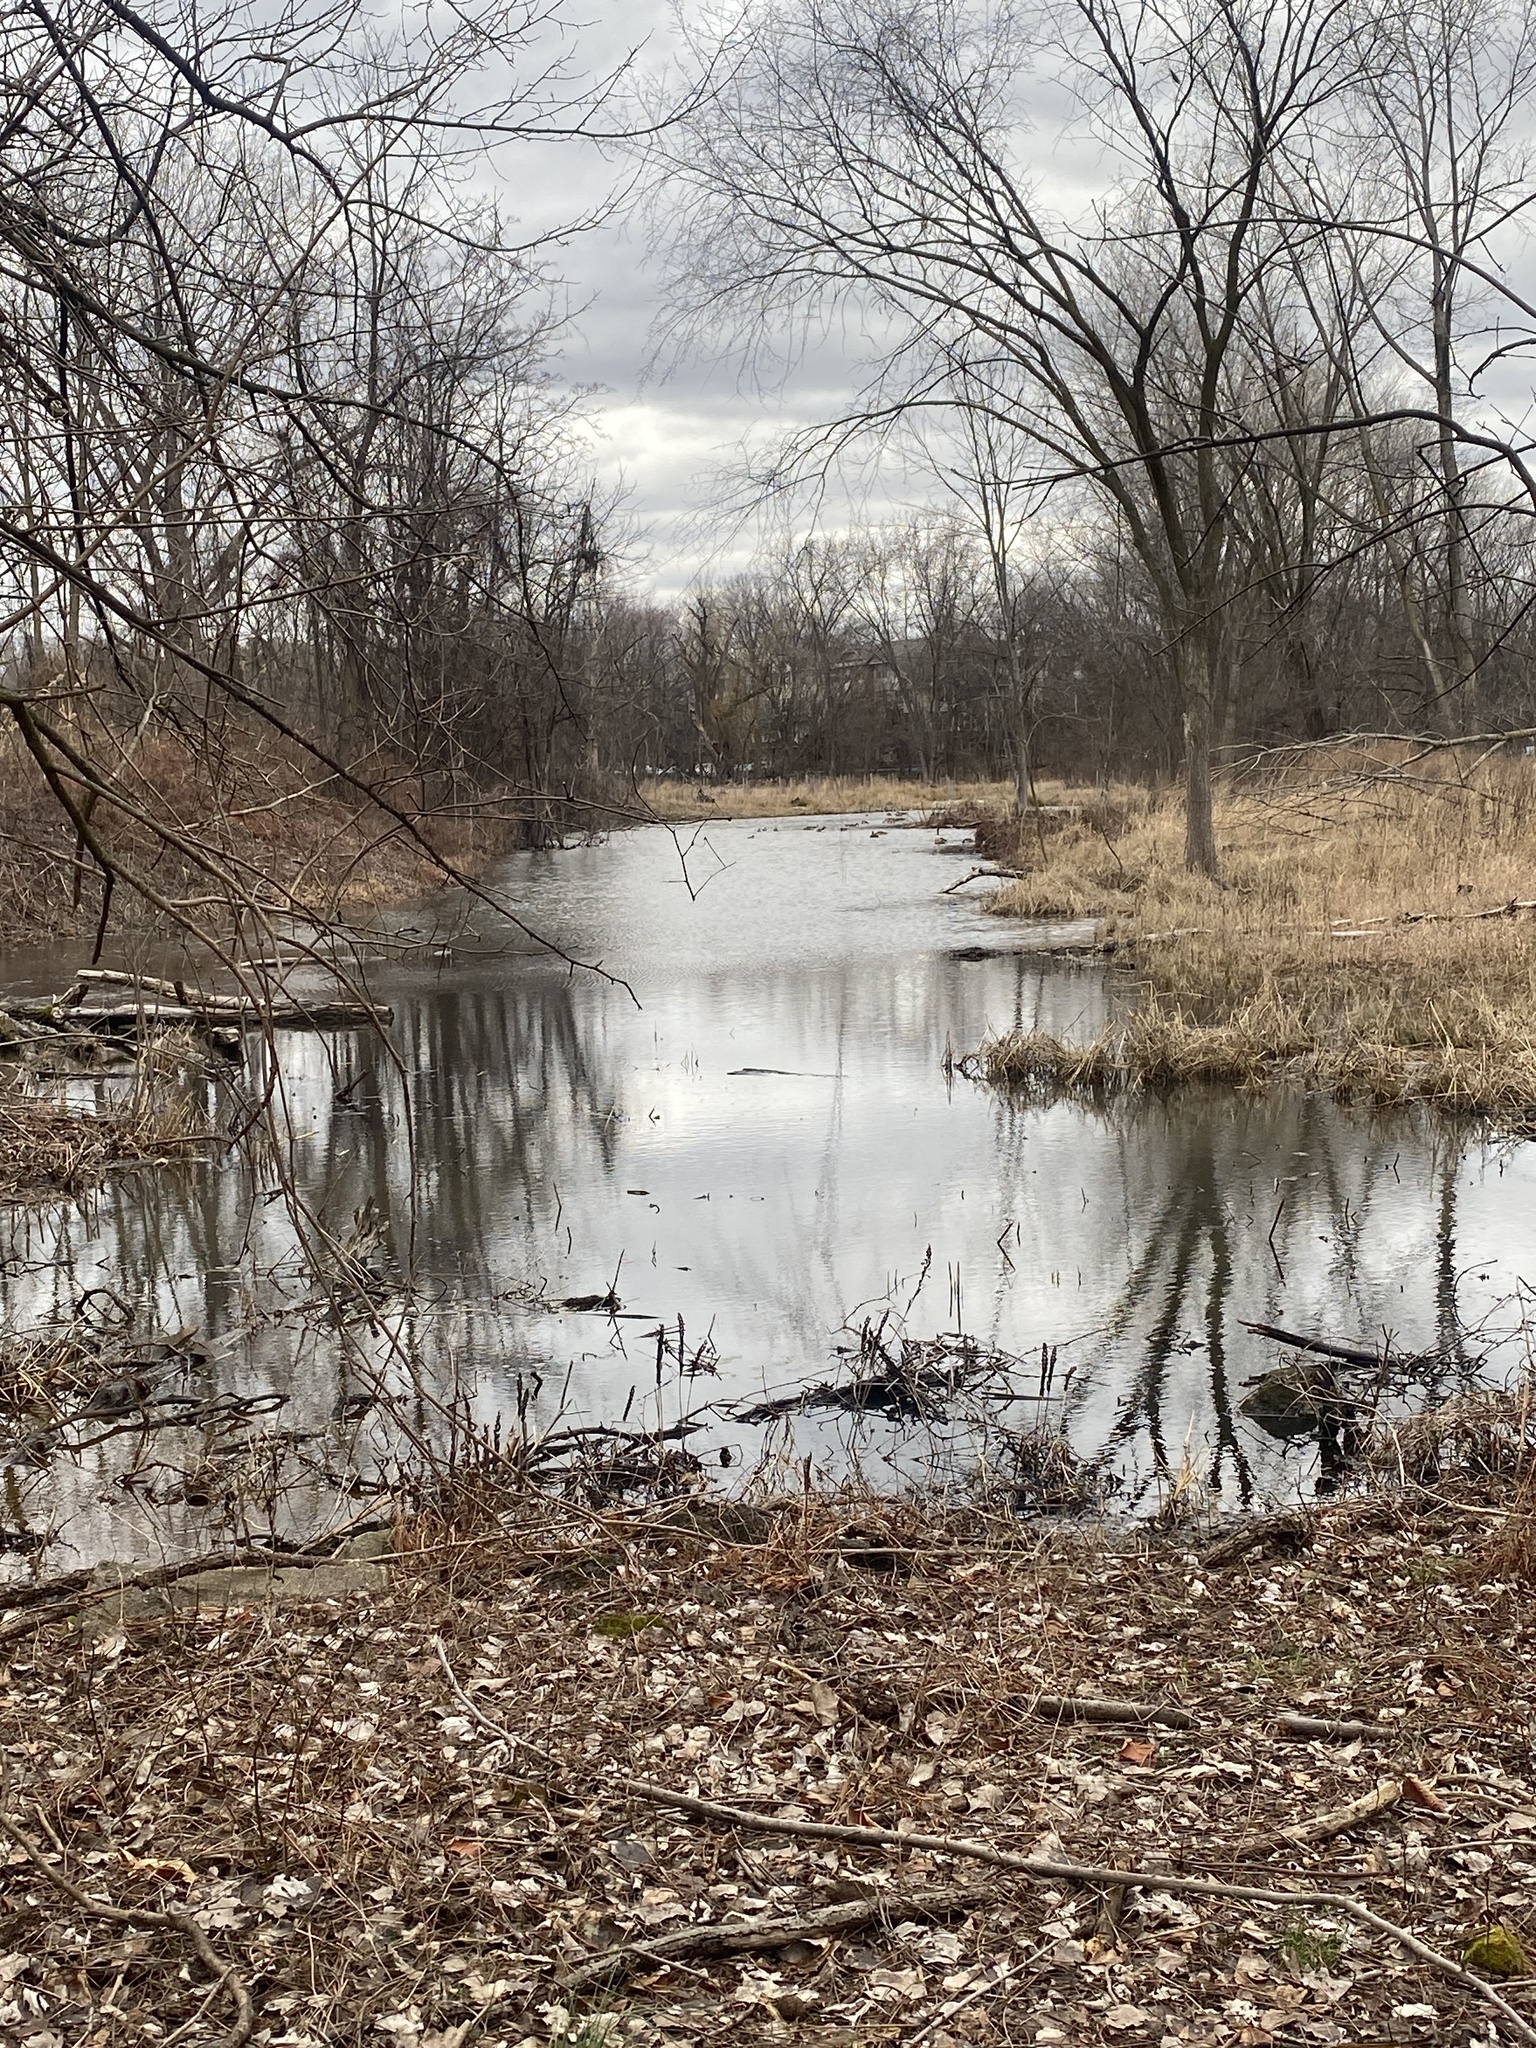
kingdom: Animalia
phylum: Chordata
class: Aves
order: Anseriformes
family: Anatidae
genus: Anas
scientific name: Anas platyrhynchos
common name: Mallard
